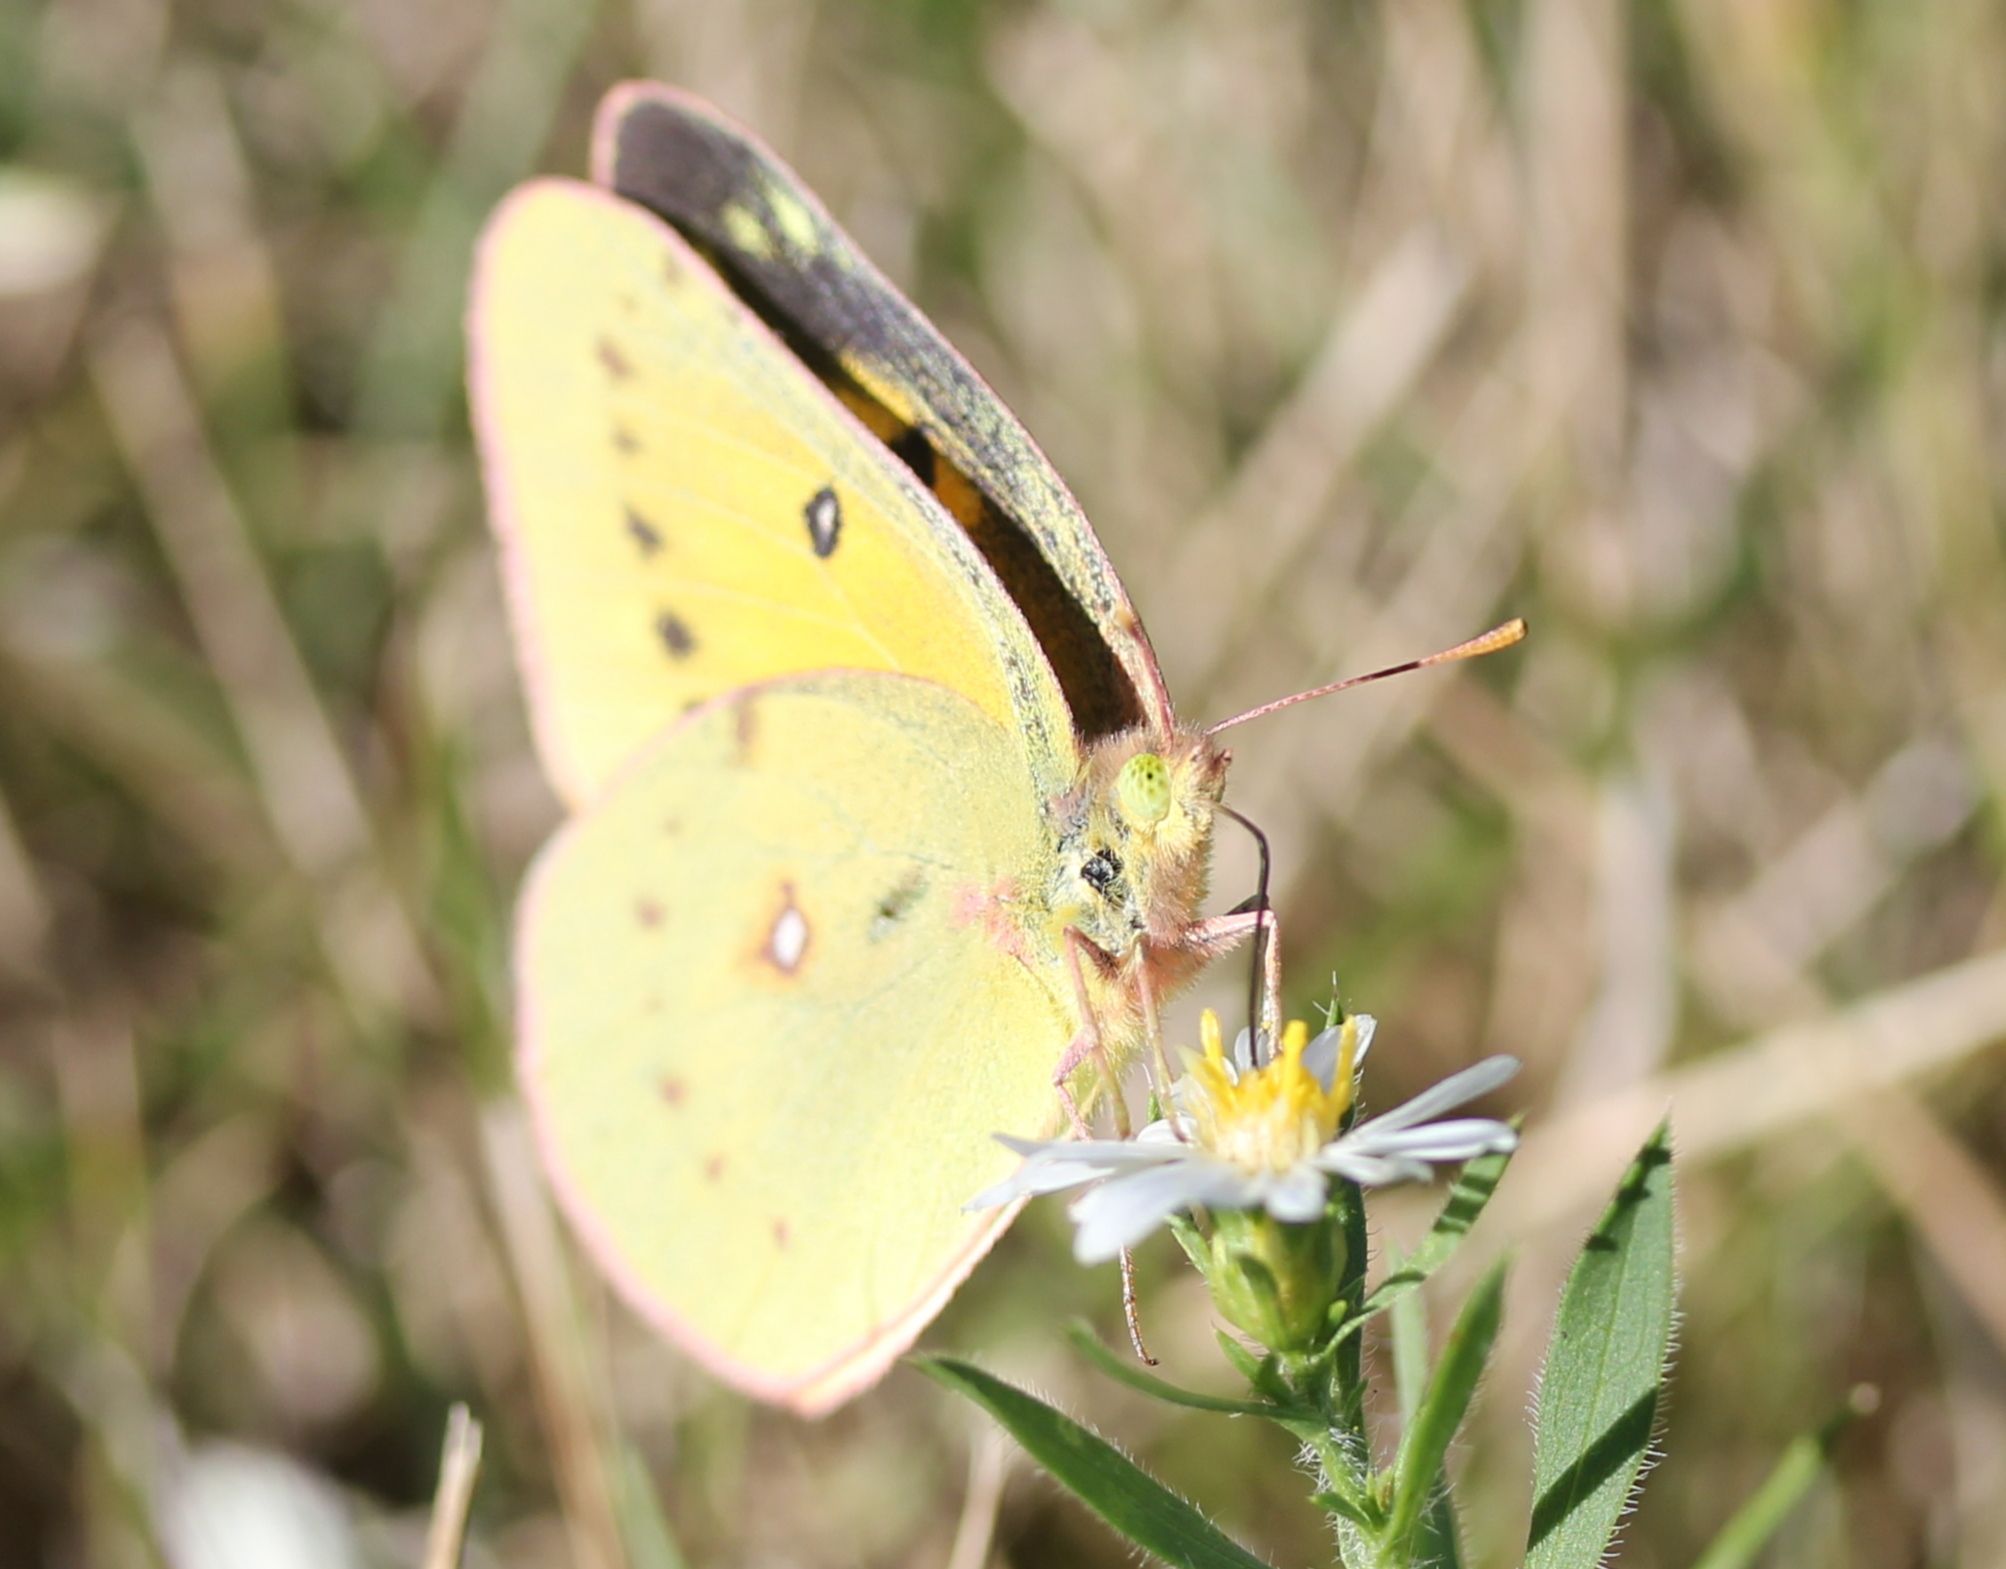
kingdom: Animalia
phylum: Arthropoda
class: Insecta
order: Lepidoptera
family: Pieridae
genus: Colias
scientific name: Colias eurytheme
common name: Alfalfa butterfly
